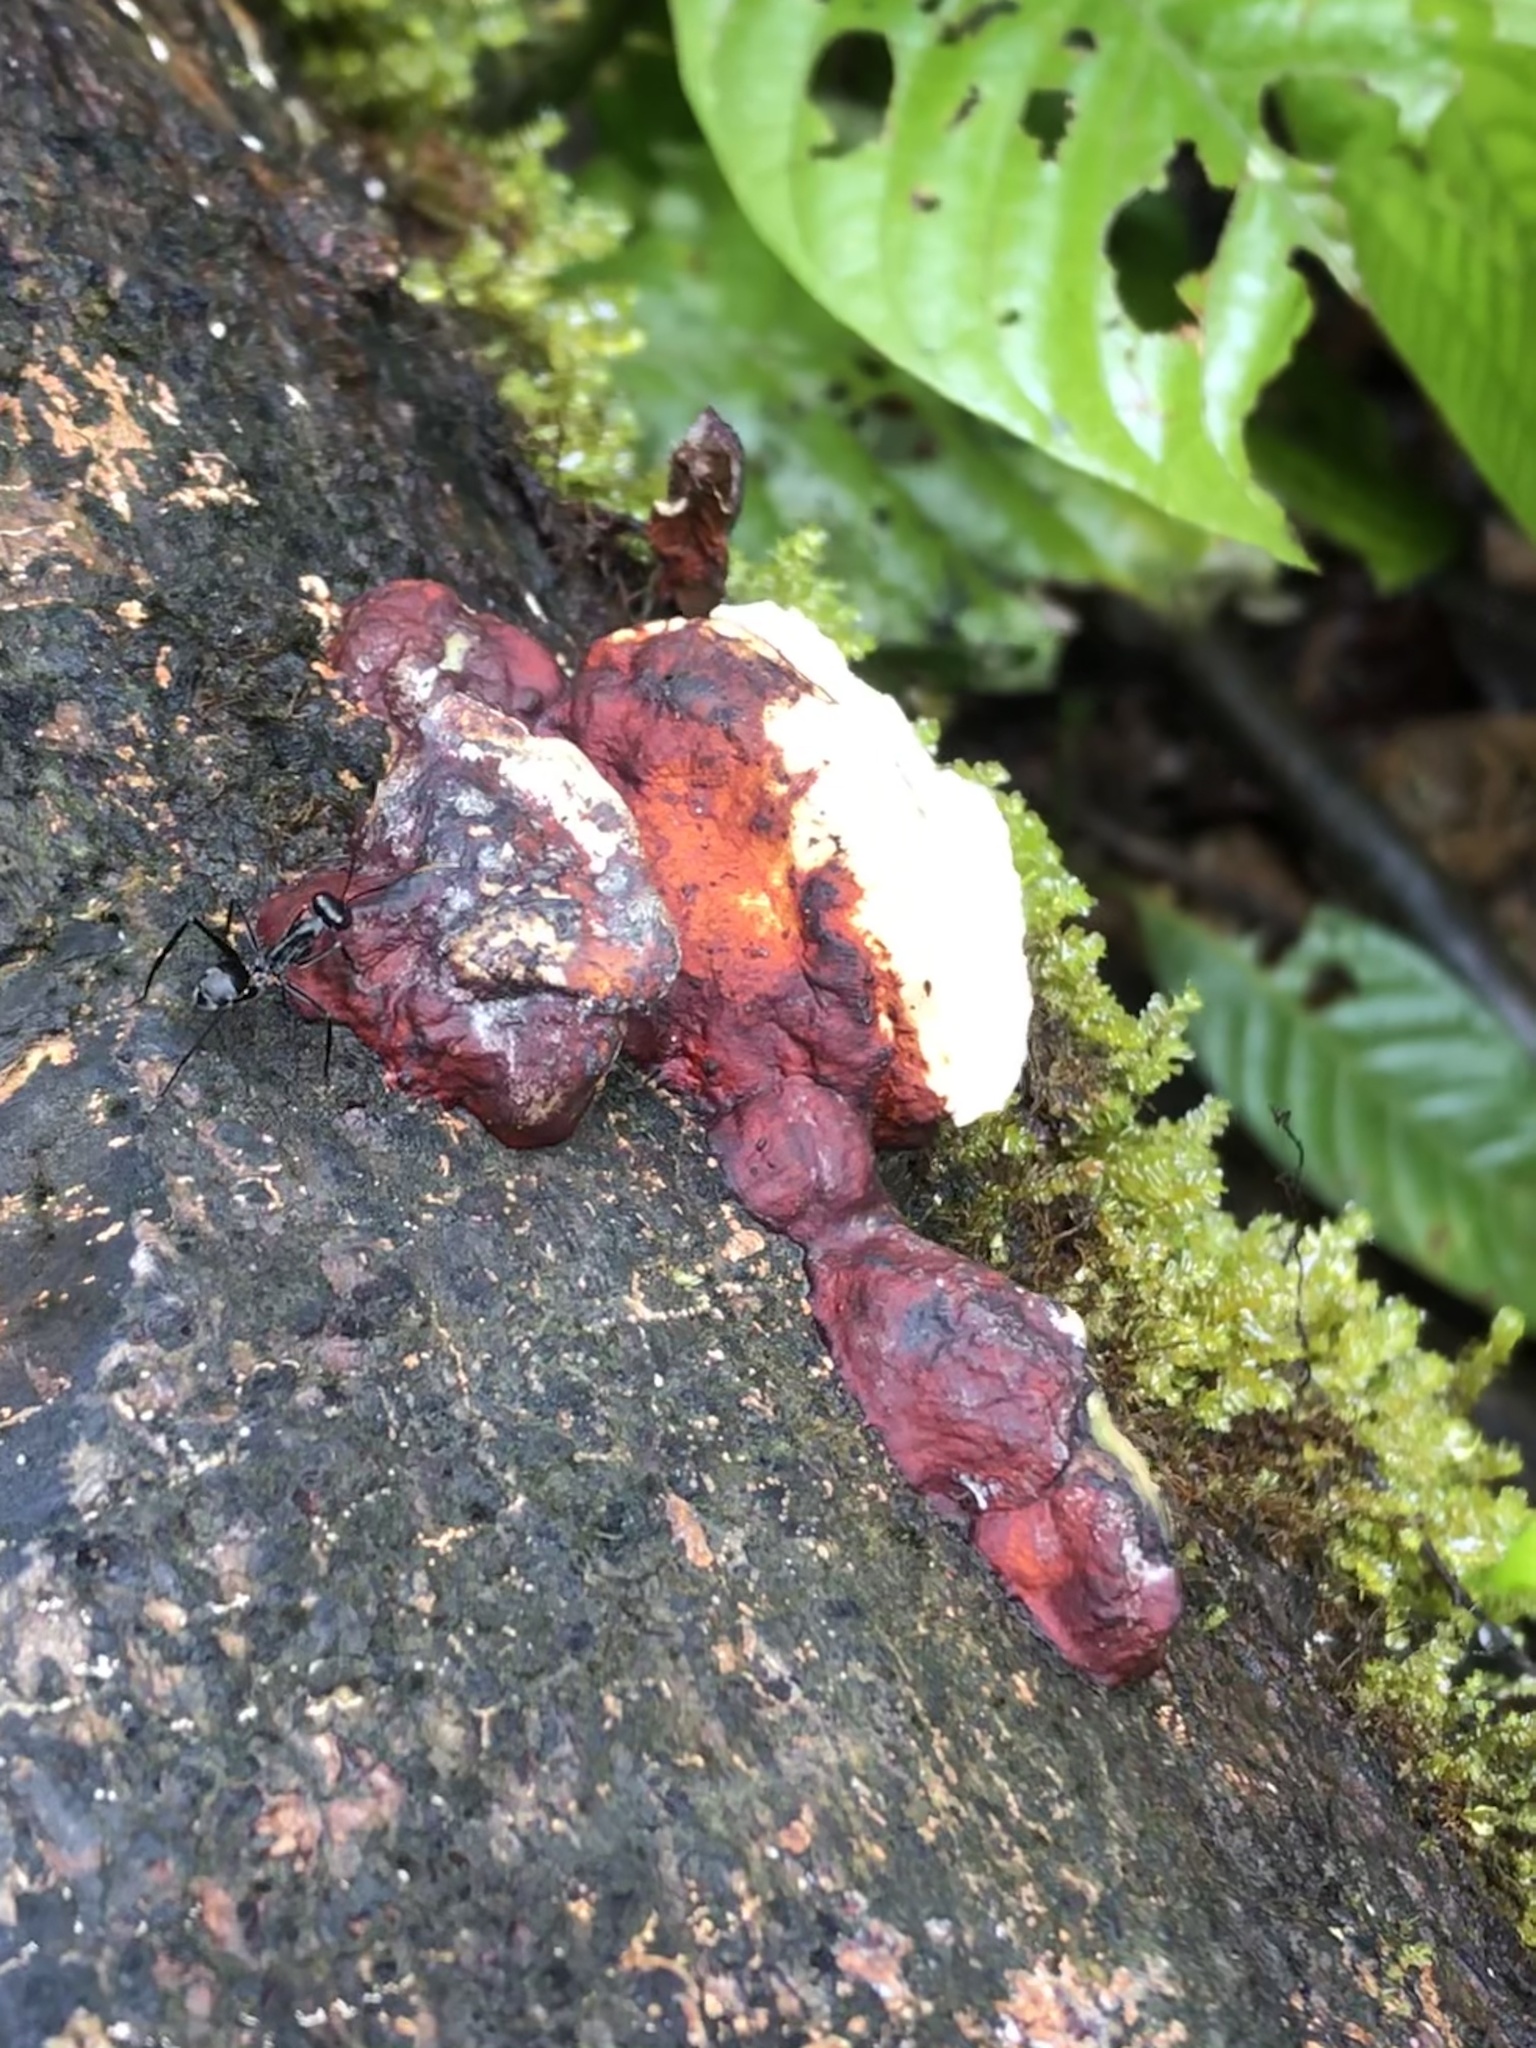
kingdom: Animalia
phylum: Arthropoda
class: Insecta
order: Hymenoptera
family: Formicidae
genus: Gigantiops
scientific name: Gigantiops destructor
